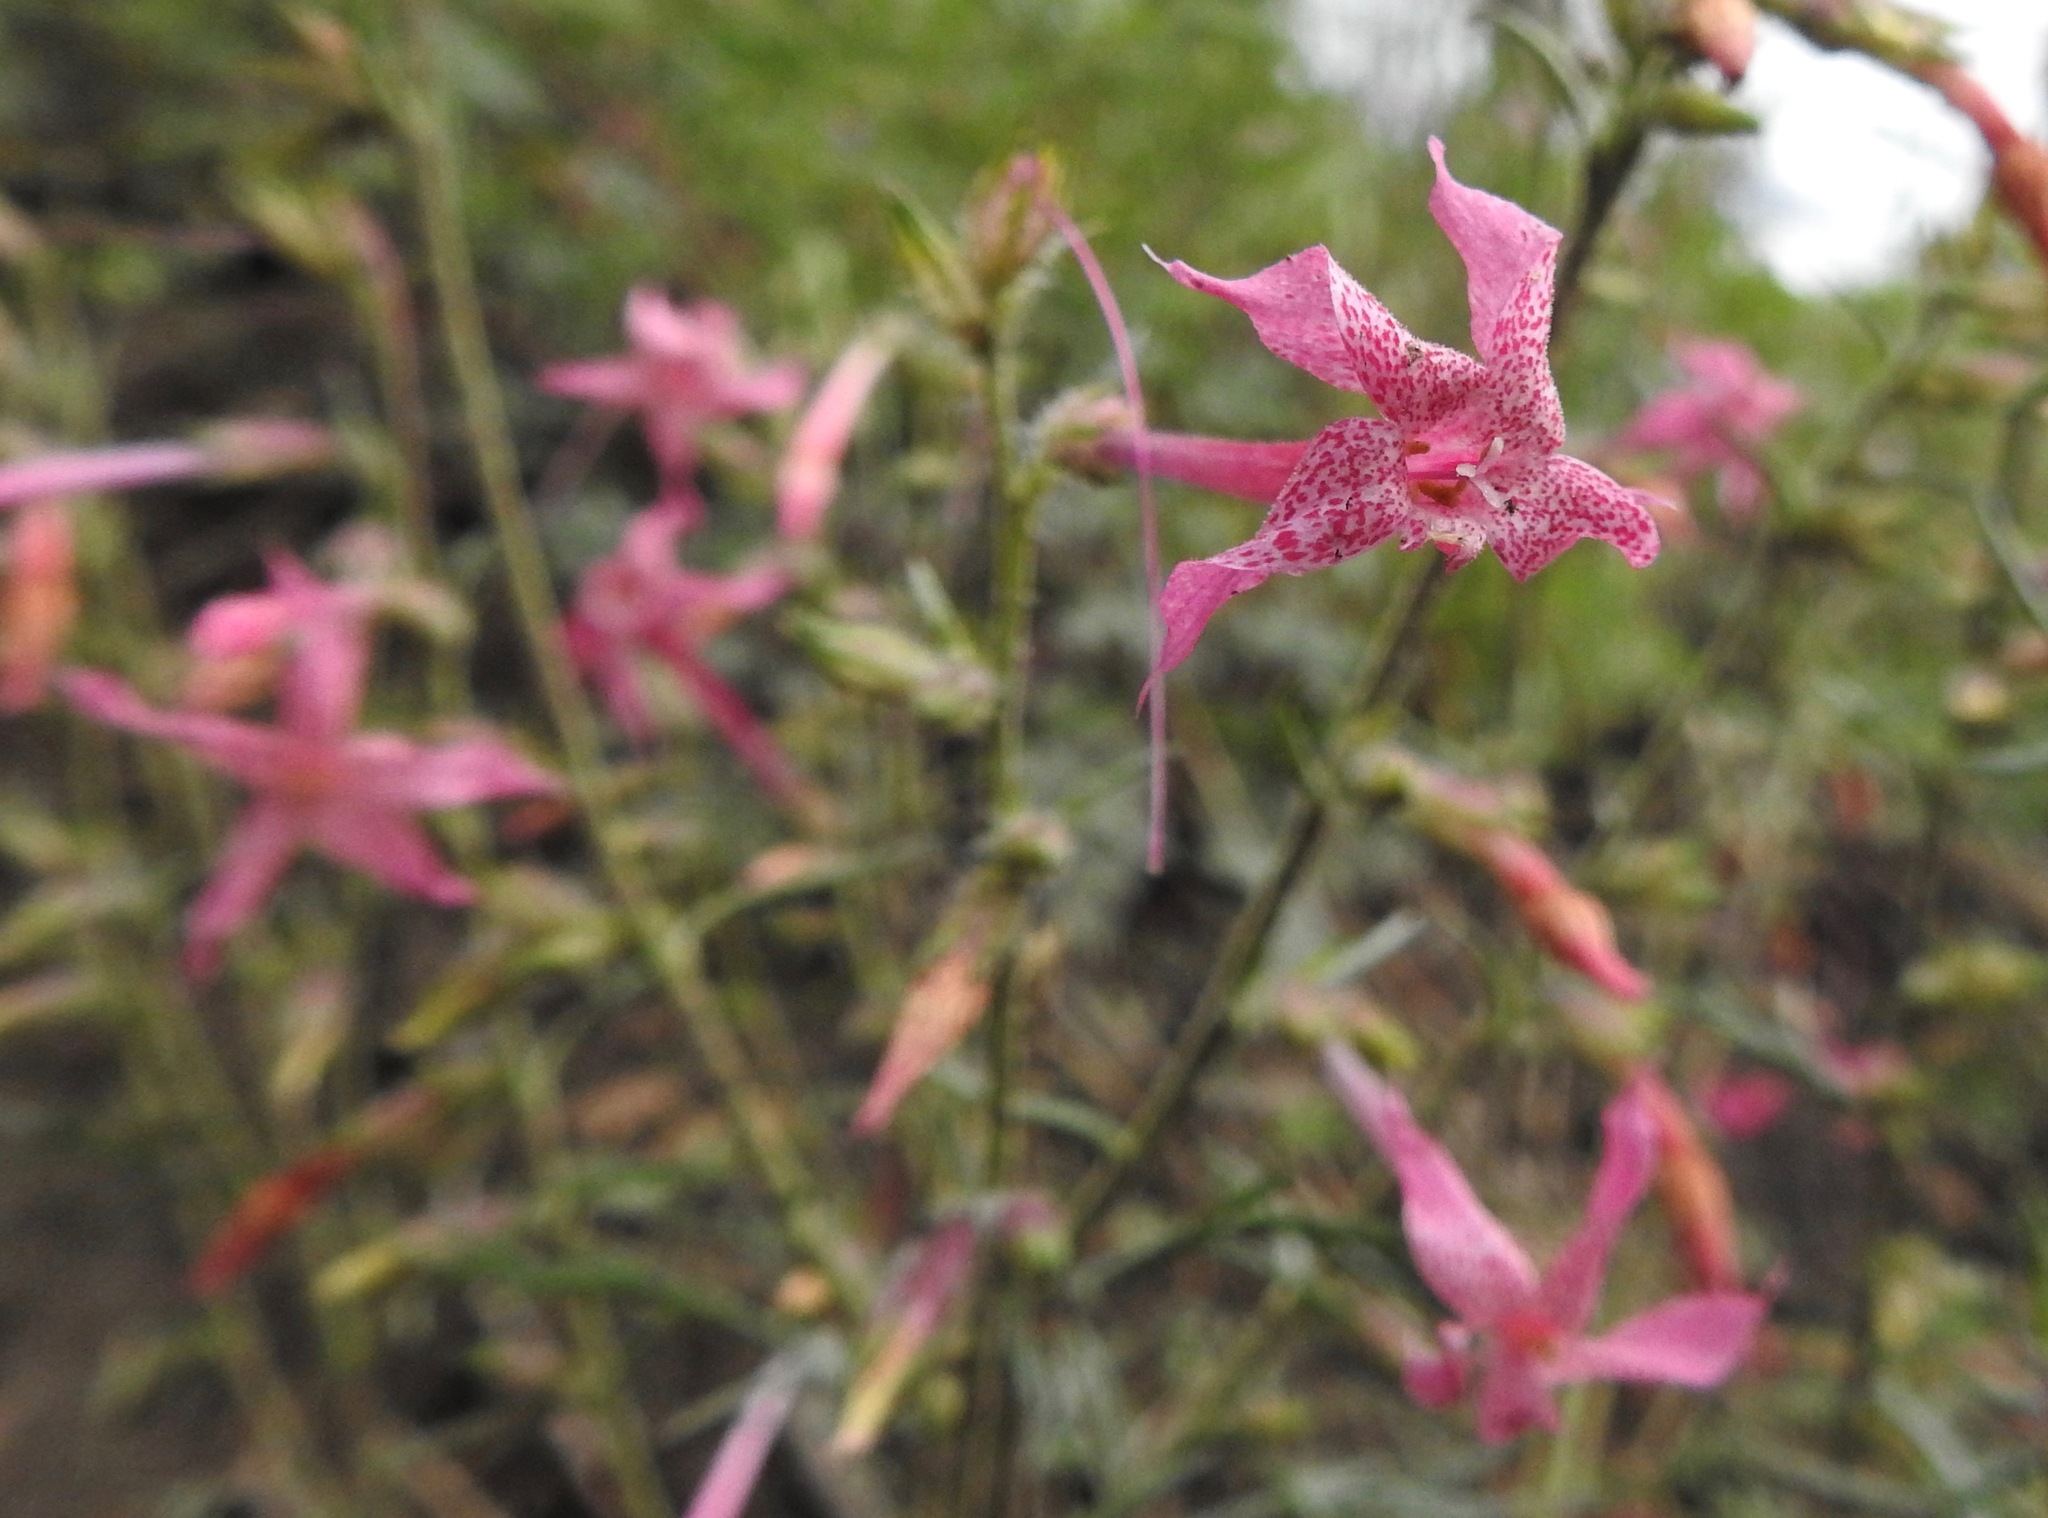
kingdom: Plantae
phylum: Tracheophyta
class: Magnoliopsida
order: Ericales
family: Polemoniaceae
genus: Ipomopsis
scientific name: Ipomopsis macrosiphon
